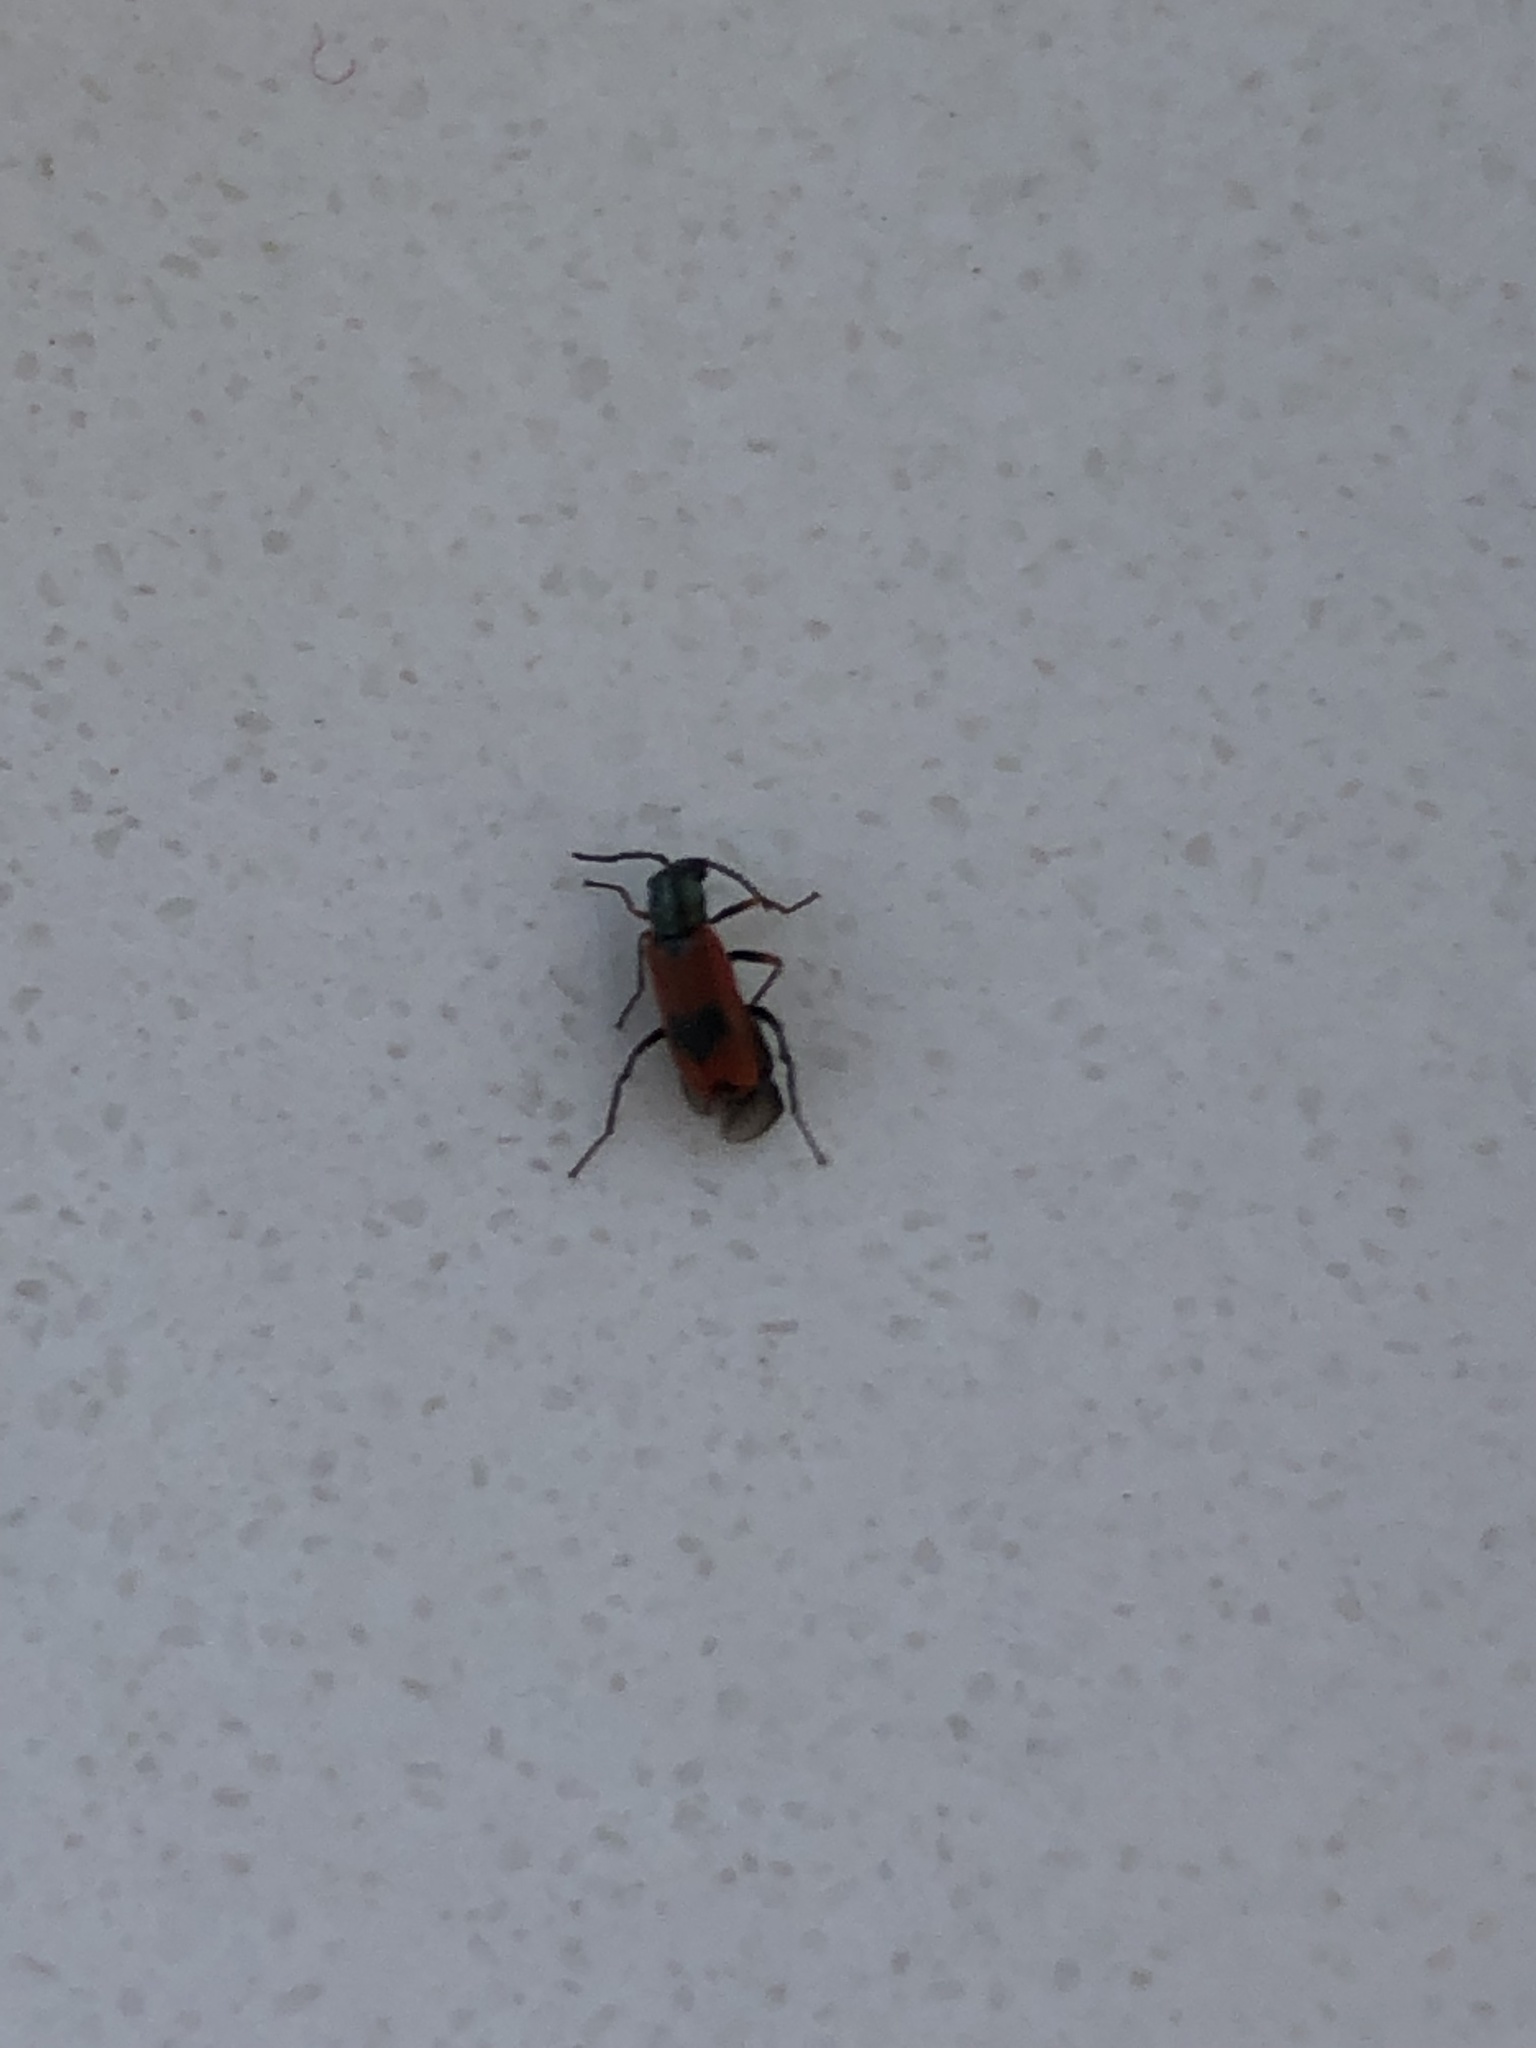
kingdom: Animalia
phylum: Arthropoda
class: Insecta
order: Coleoptera
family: Melyridae
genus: Anthocomus
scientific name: Anthocomus equestris
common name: Black-banded soft-winged flower beetle
